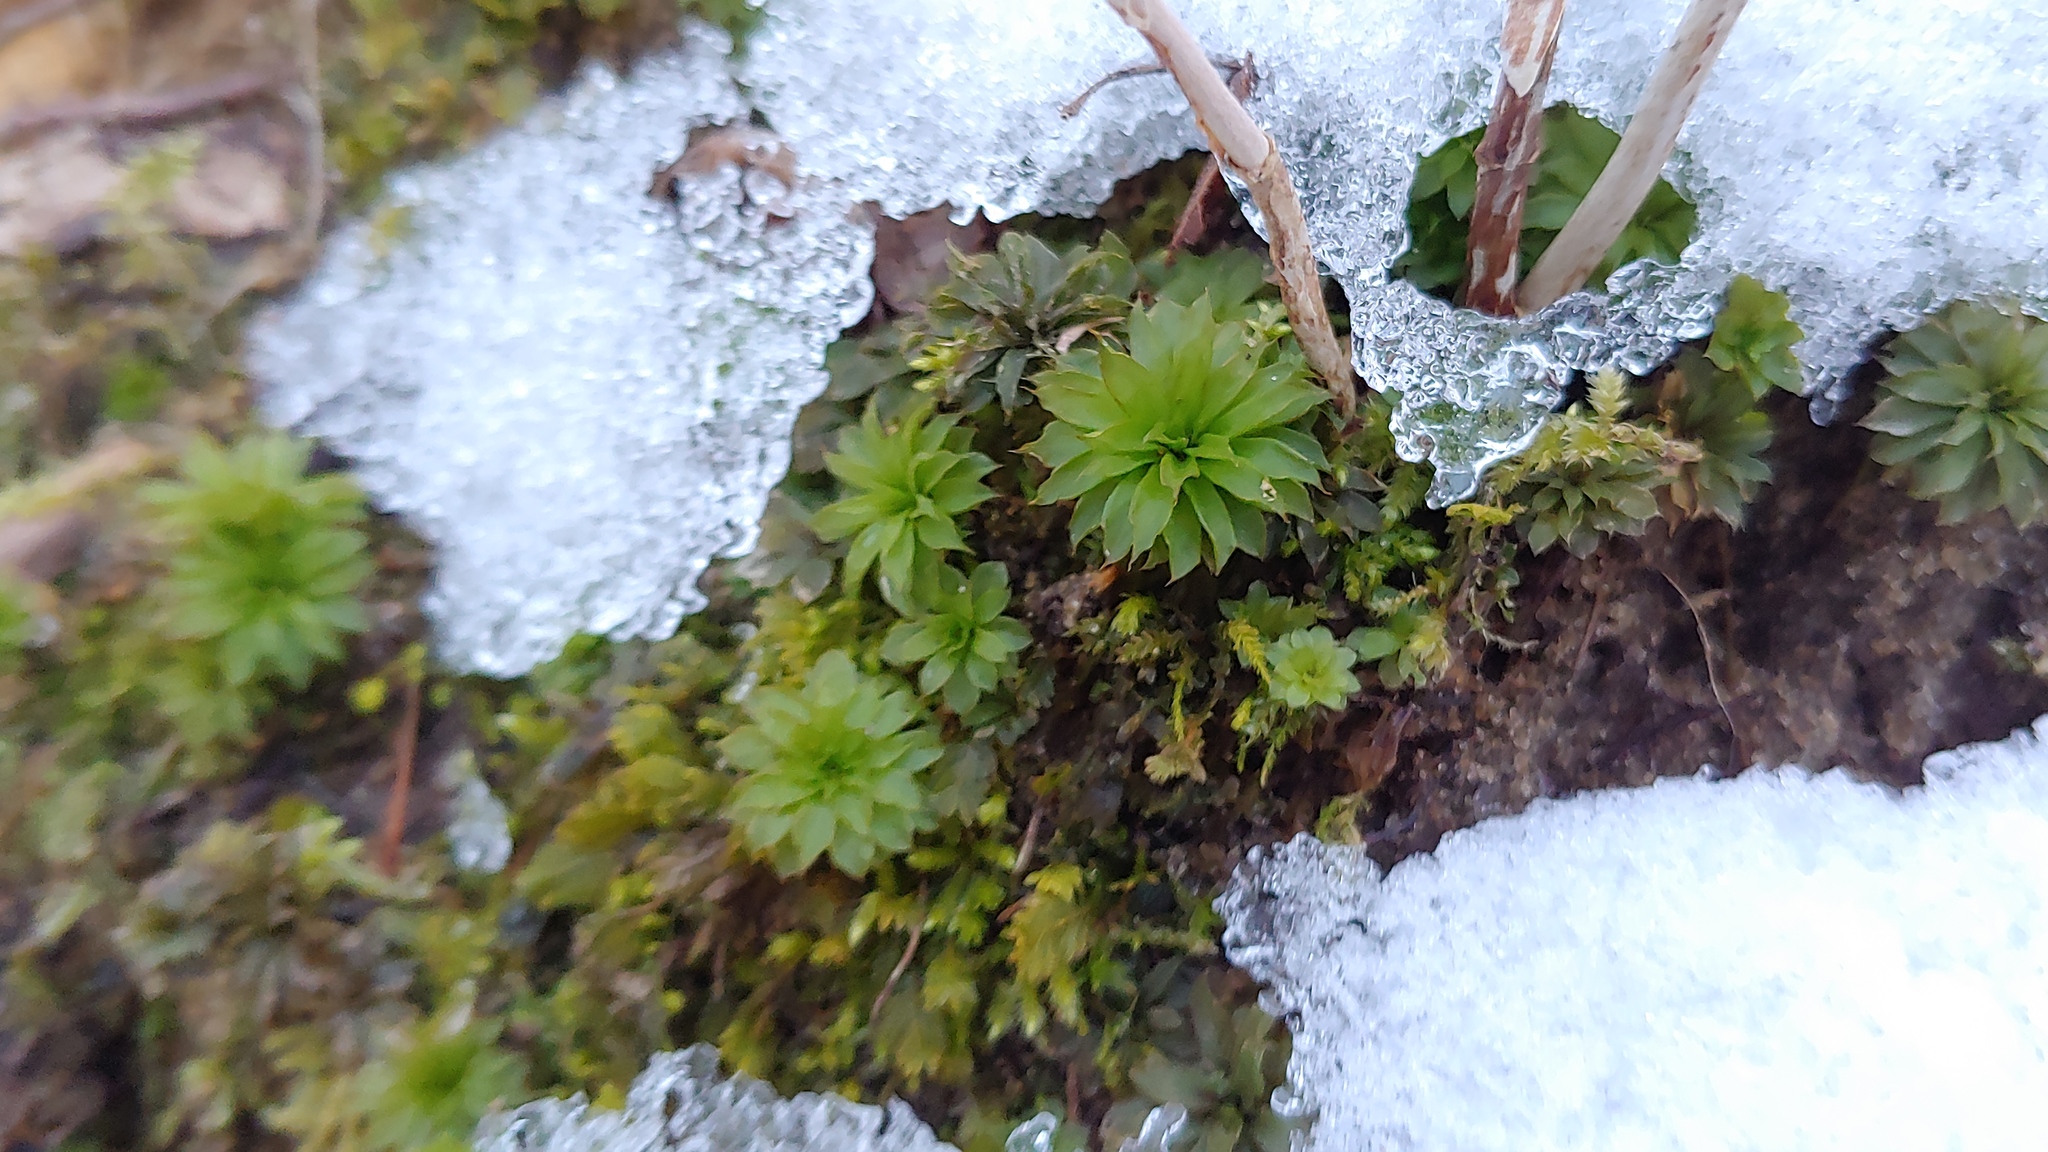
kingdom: Plantae
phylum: Bryophyta
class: Bryopsida
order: Bryales
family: Bryaceae
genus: Rhodobryum
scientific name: Rhodobryum ontariense
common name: Ontario rhodobryum moss
